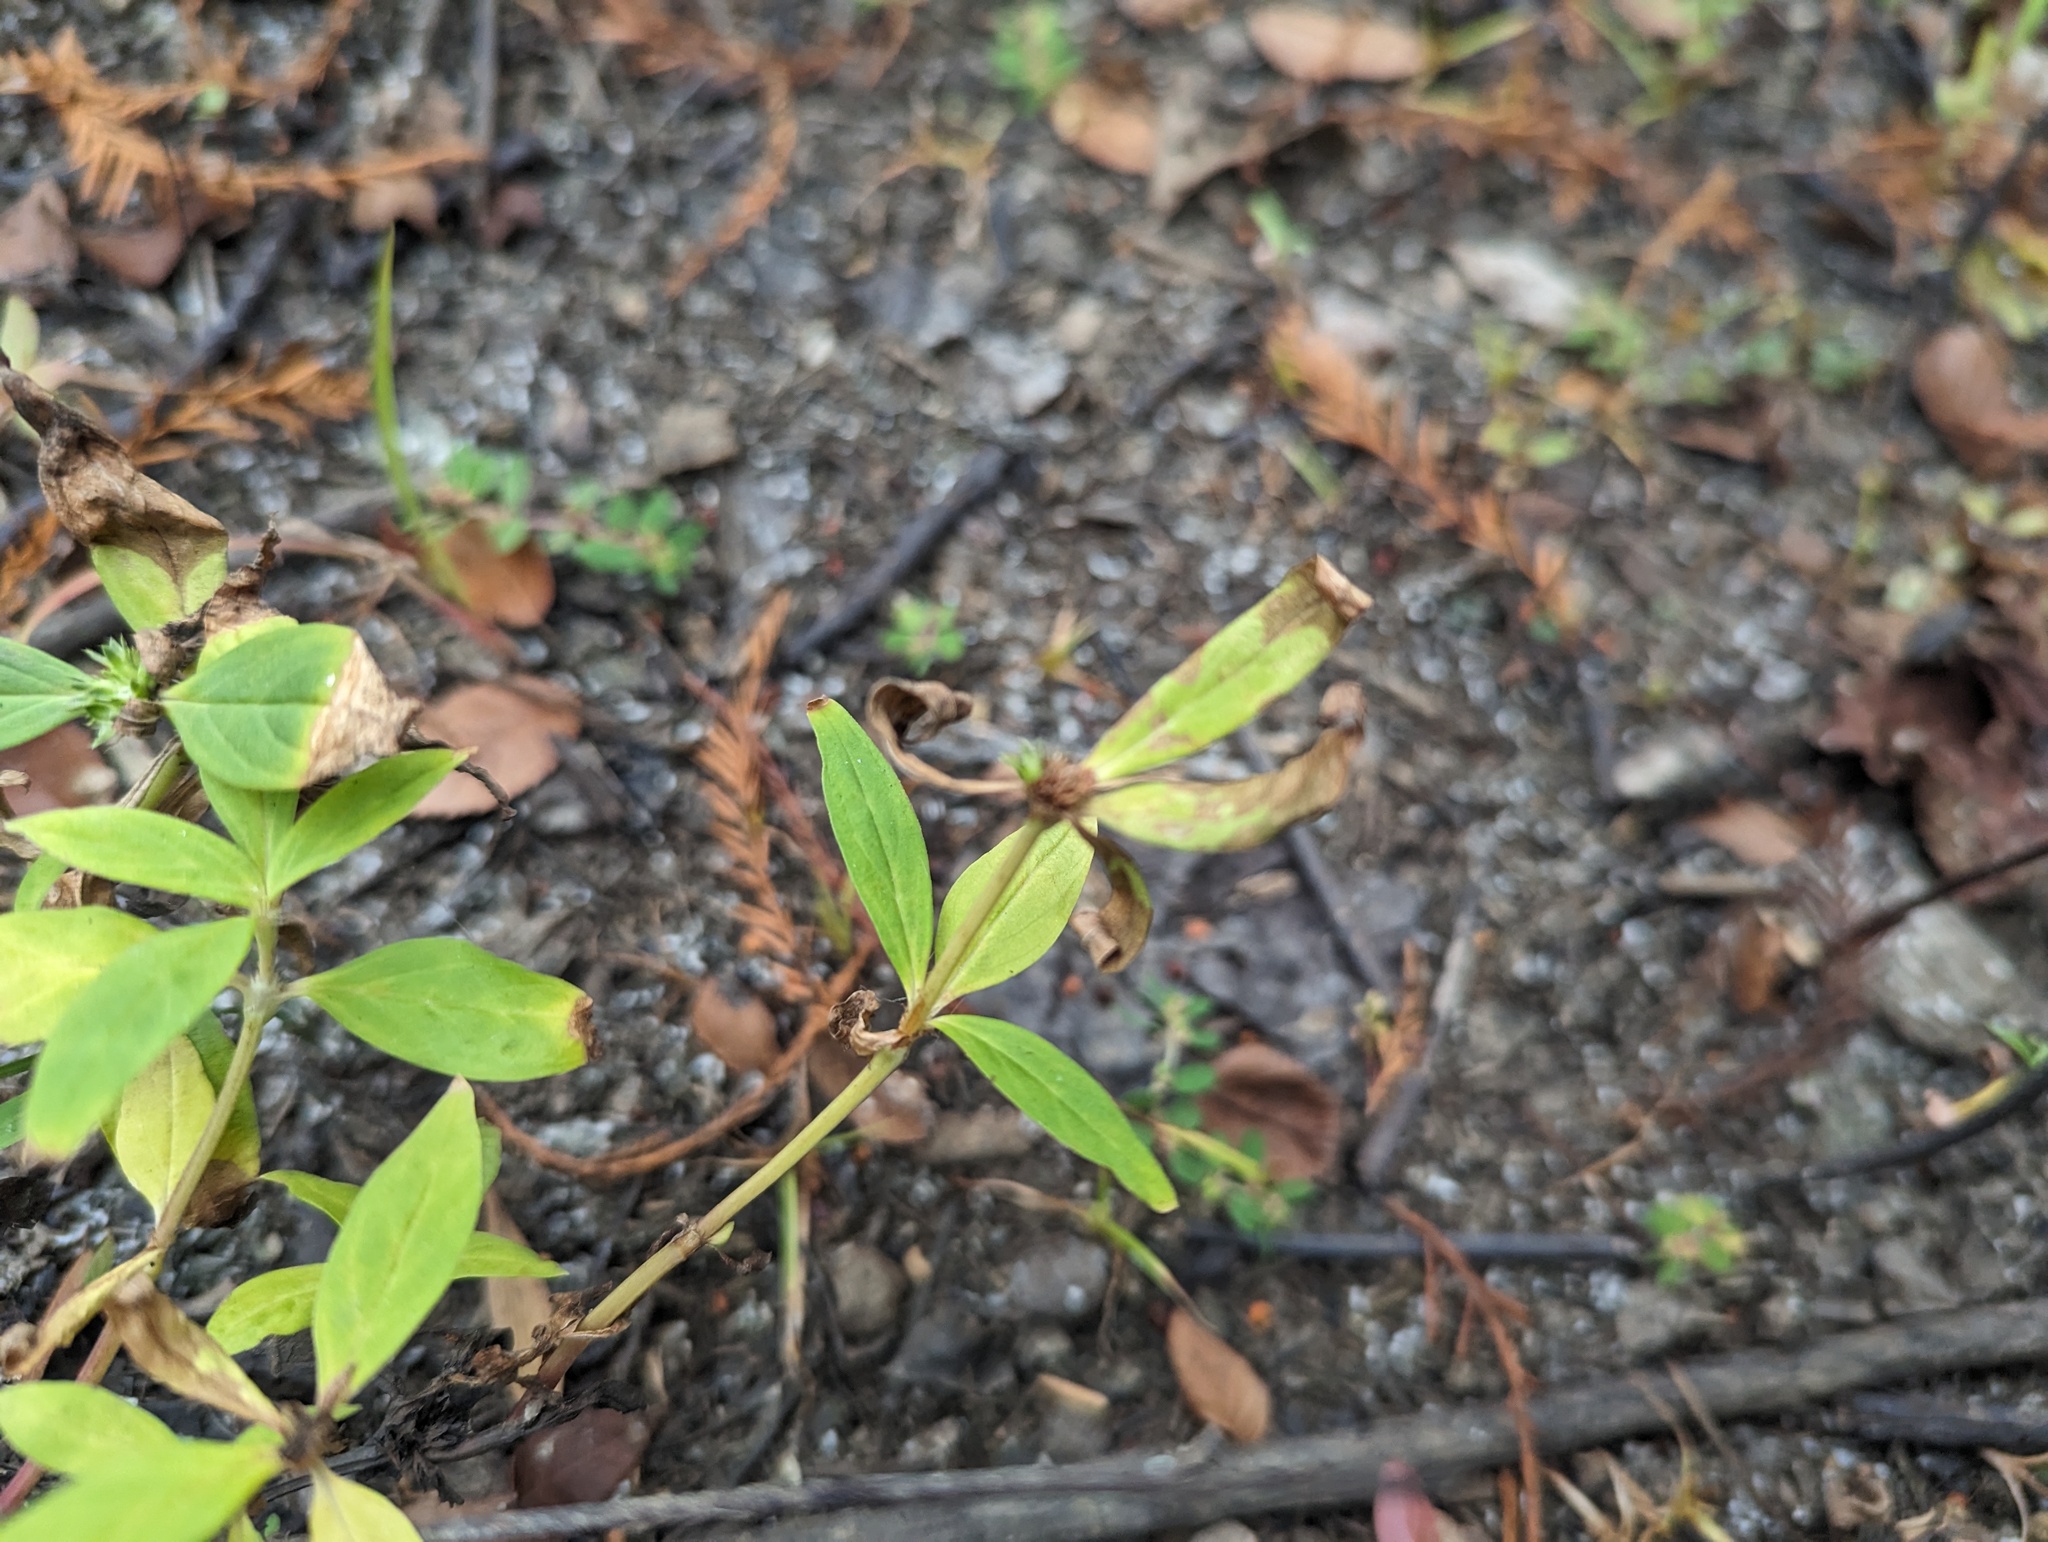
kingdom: Plantae
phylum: Tracheophyta
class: Magnoliopsida
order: Gentianales
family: Rubiaceae
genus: Spermacoce
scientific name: Spermacoce glabra
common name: Smooth buttonweed
